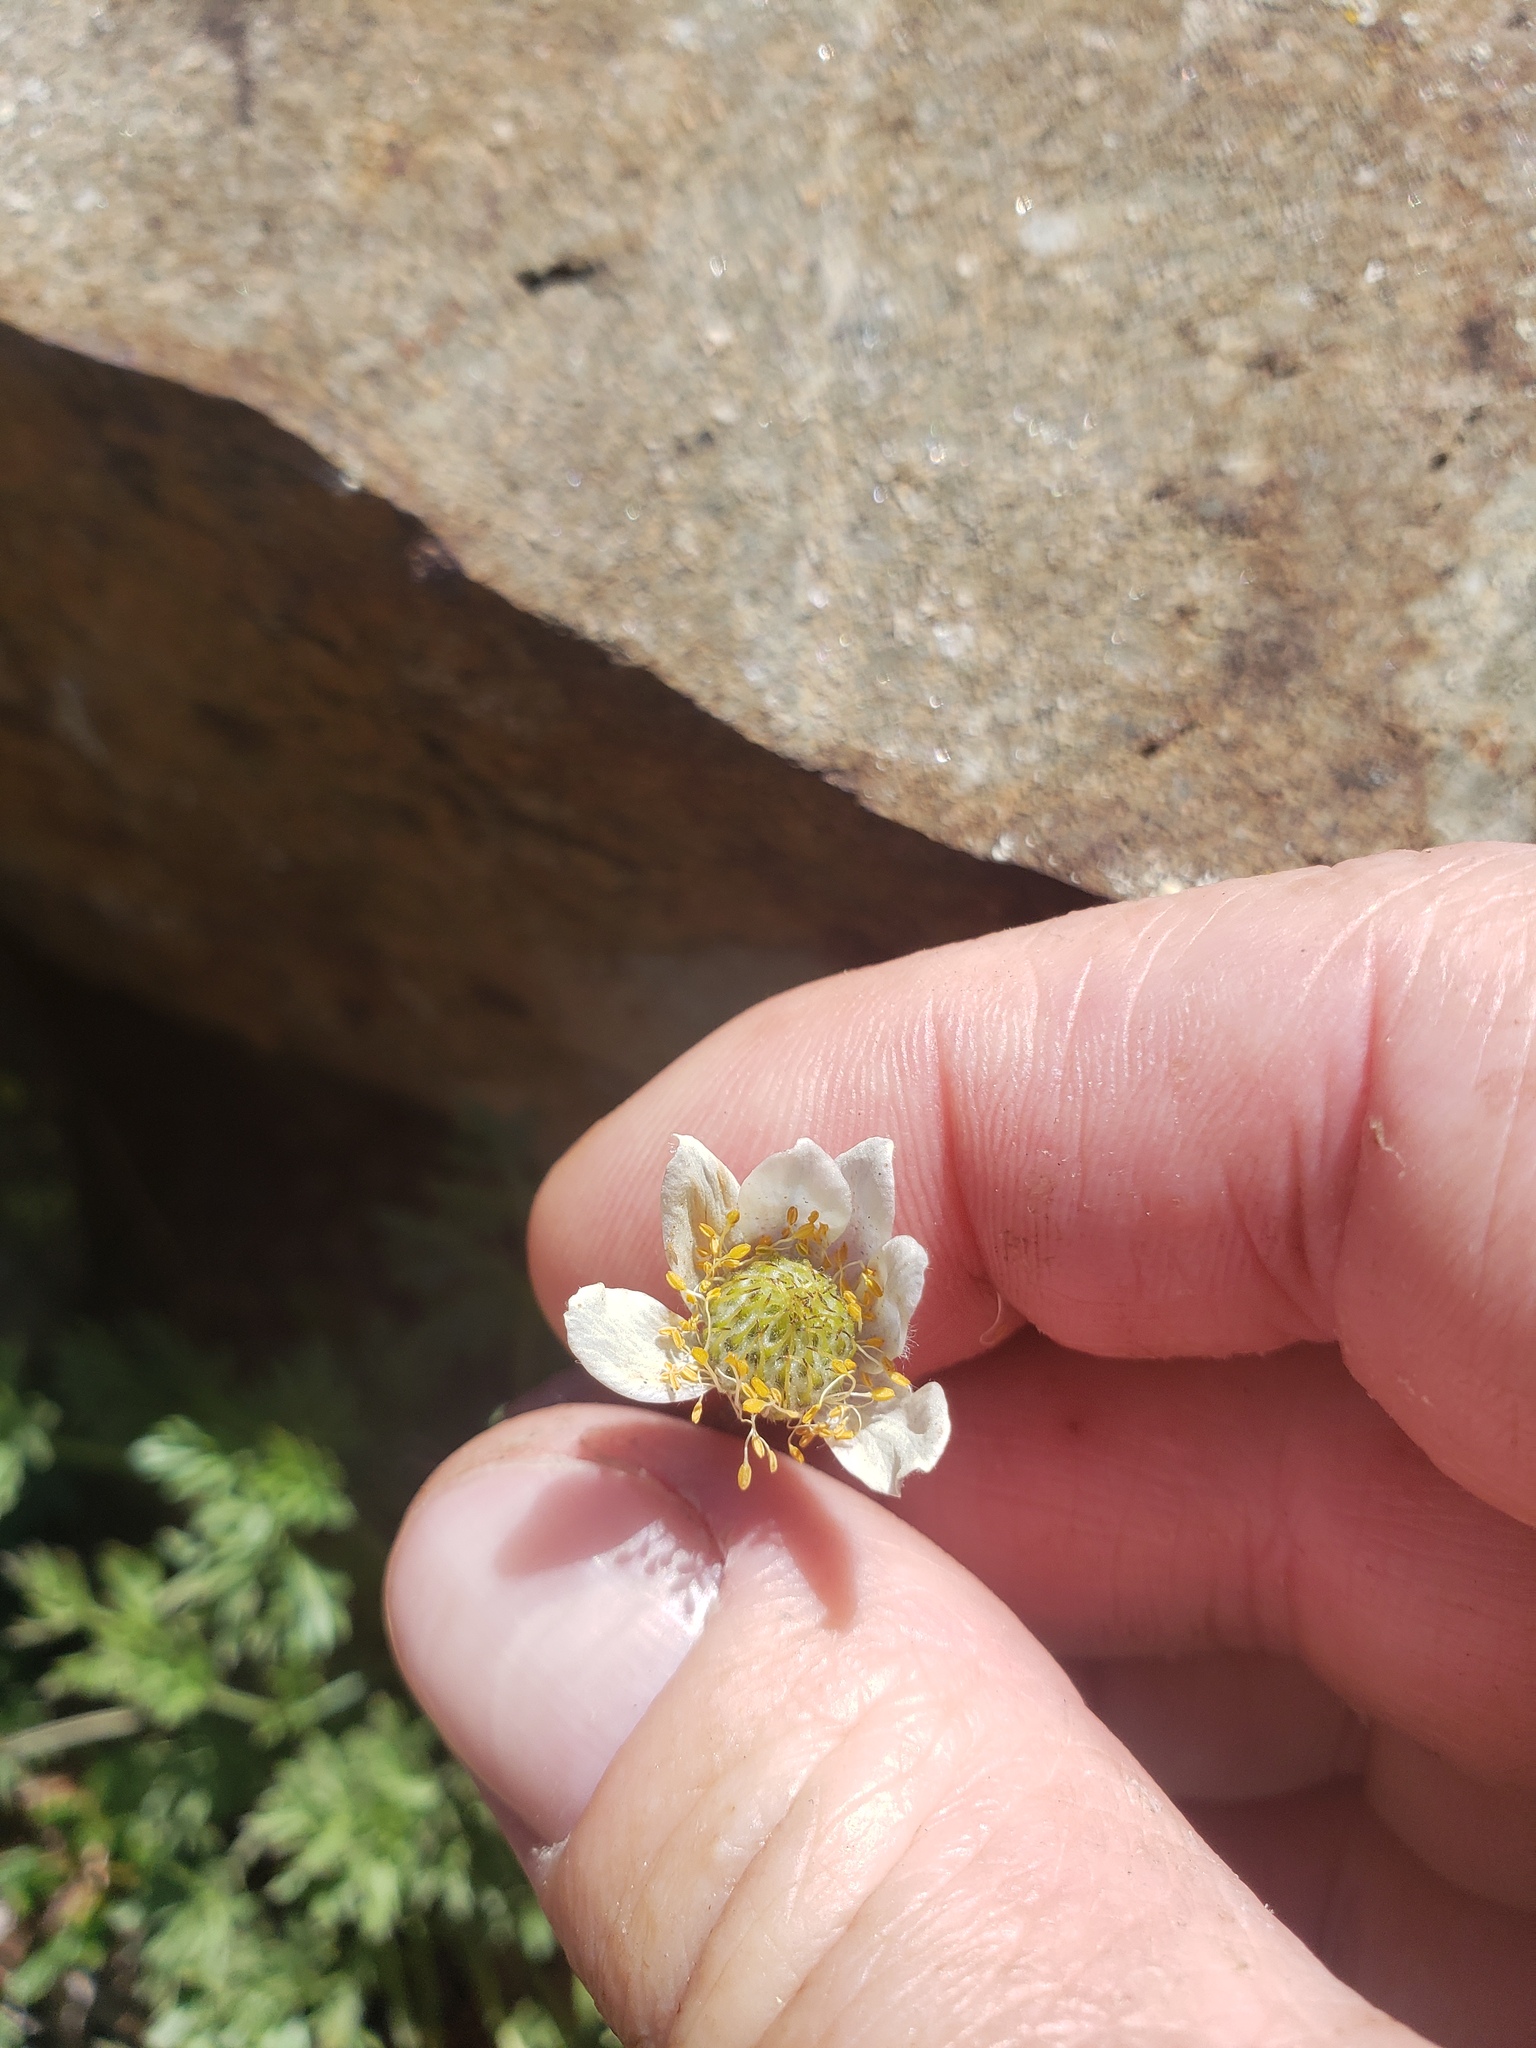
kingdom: Plantae
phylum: Tracheophyta
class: Magnoliopsida
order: Rosales
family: Rosaceae
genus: Dryas
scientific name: Dryas octopetala
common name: Eight-petal mountain-avens
